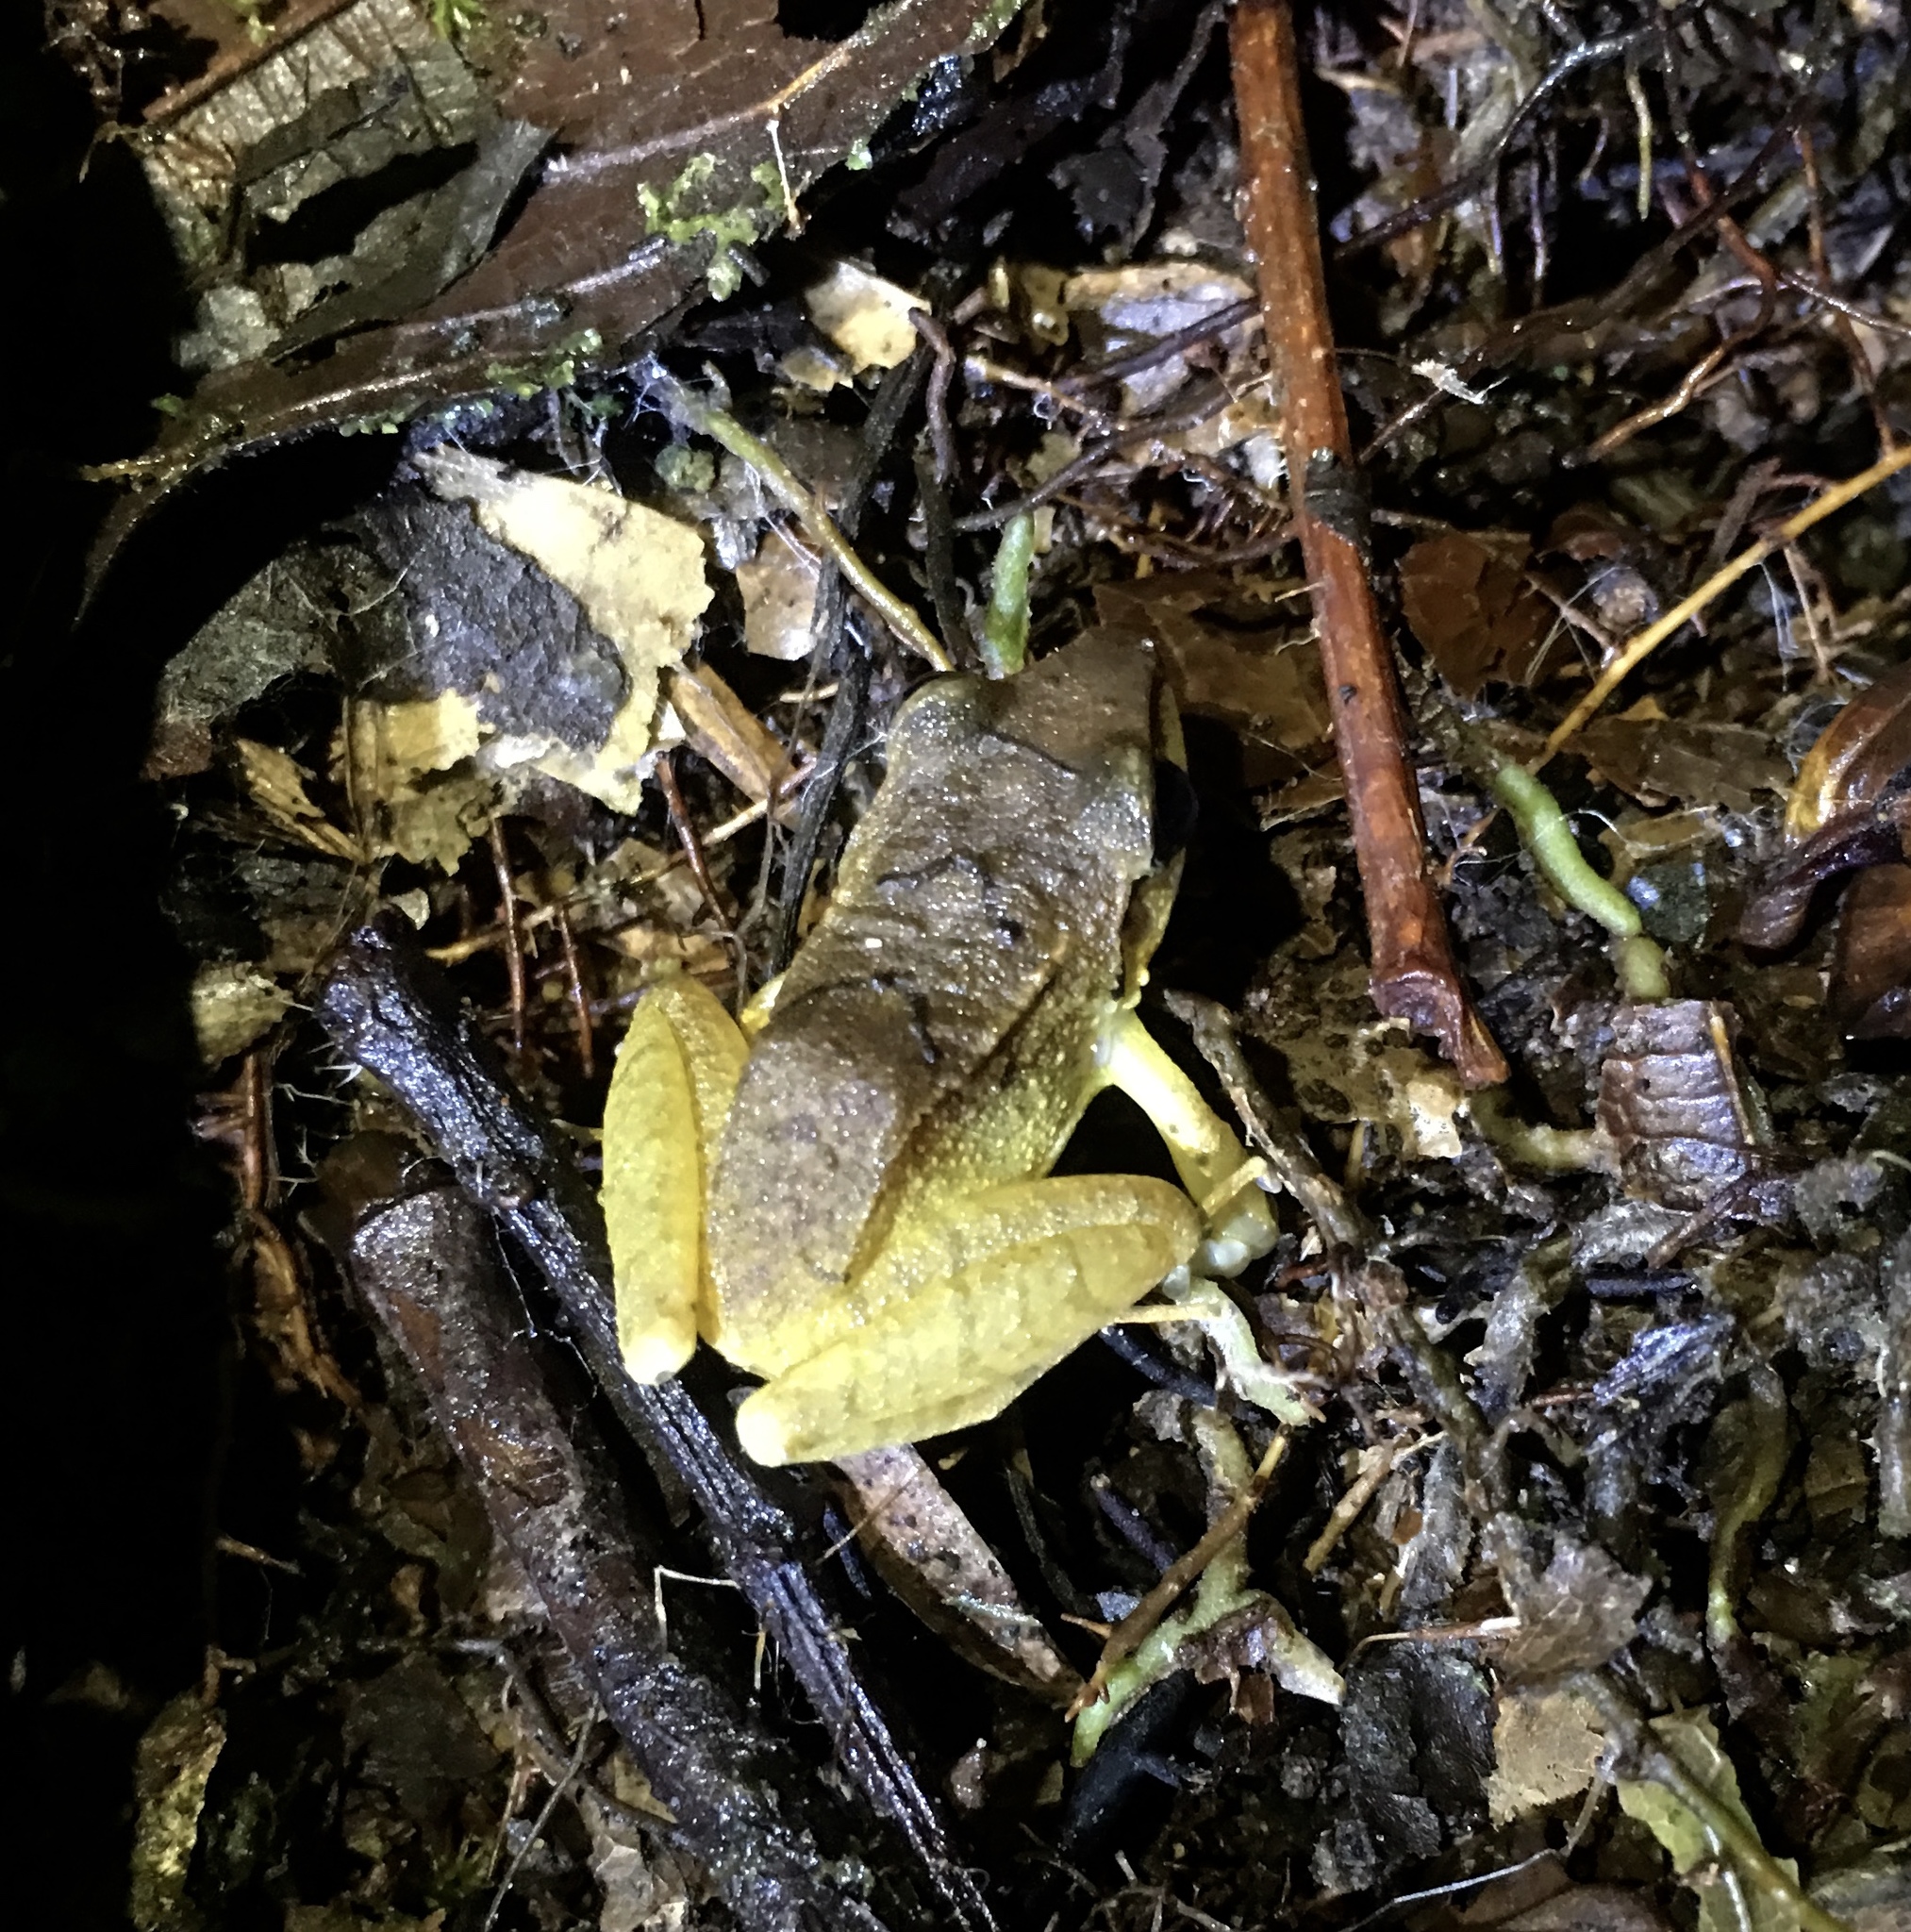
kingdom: Animalia
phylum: Chordata
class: Amphibia
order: Anura
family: Craugastoridae
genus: Pristimantis
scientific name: Pristimantis achatinus
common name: Cachabi robber frog
